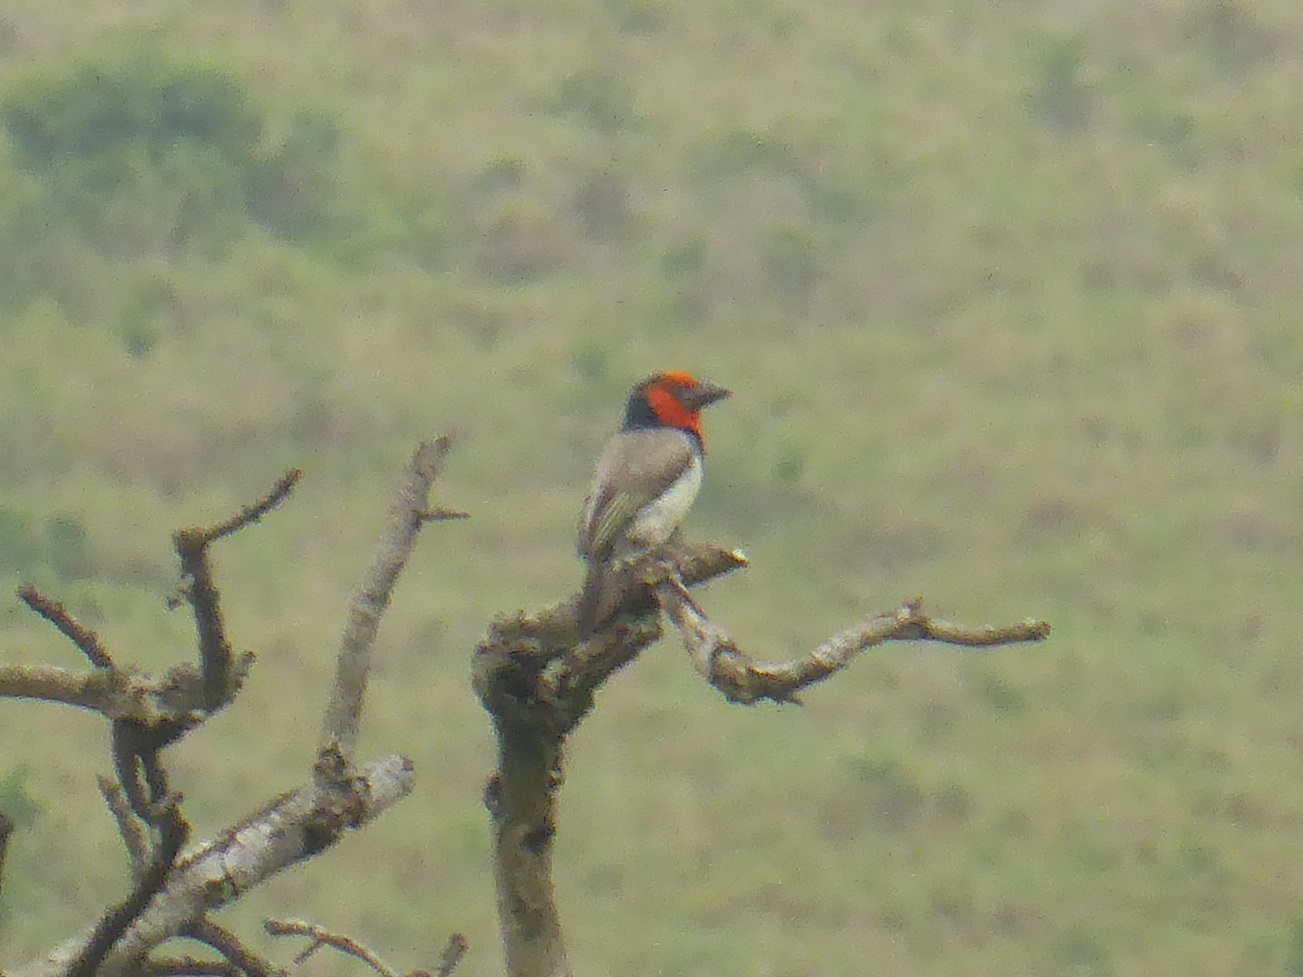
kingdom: Animalia
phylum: Chordata
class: Aves
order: Piciformes
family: Lybiidae
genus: Lybius
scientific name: Lybius torquatus
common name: Black-collared barbet
